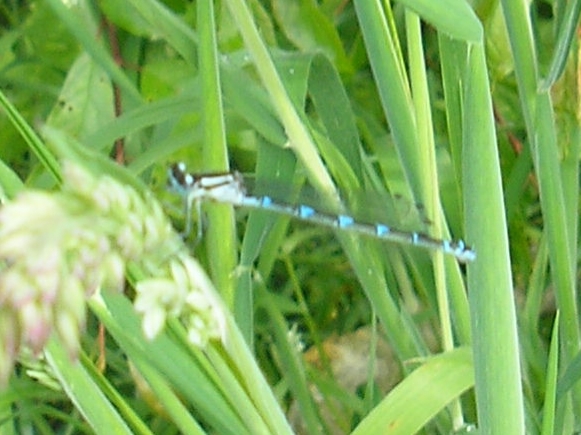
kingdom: Animalia
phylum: Arthropoda
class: Insecta
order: Odonata
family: Coenagrionidae
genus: Enallagma
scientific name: Enallagma cyathigerum
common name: Common blue damselfly
